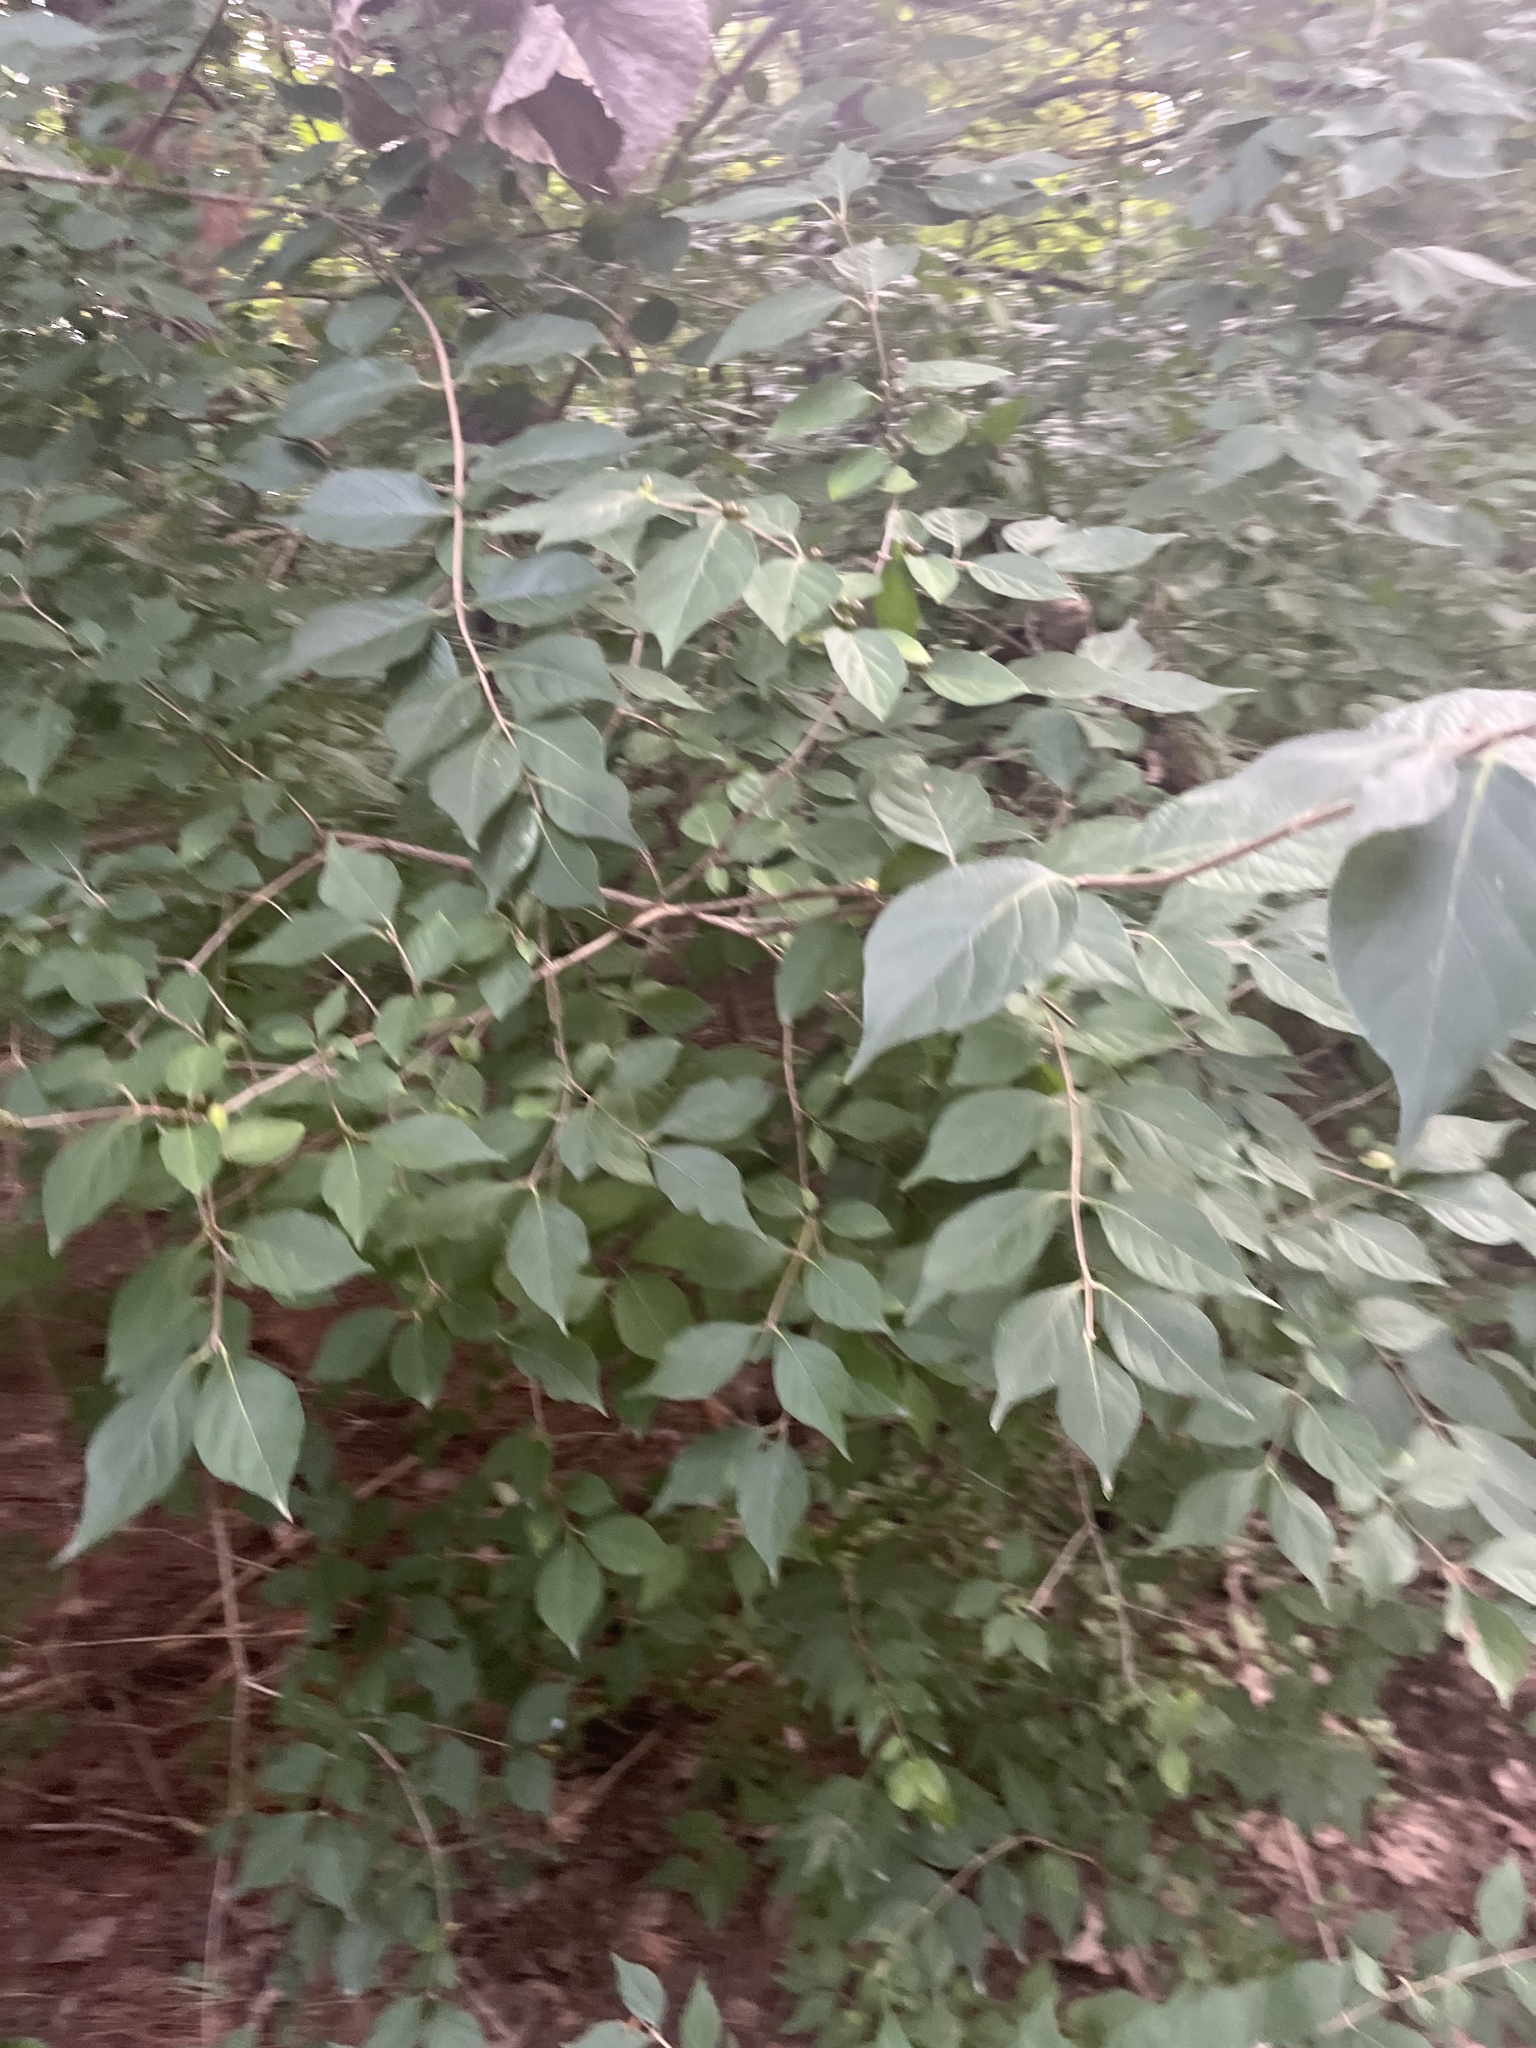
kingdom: Plantae
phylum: Tracheophyta
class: Magnoliopsida
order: Dipsacales
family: Caprifoliaceae
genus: Lonicera
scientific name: Lonicera maackii
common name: Amur honeysuckle
